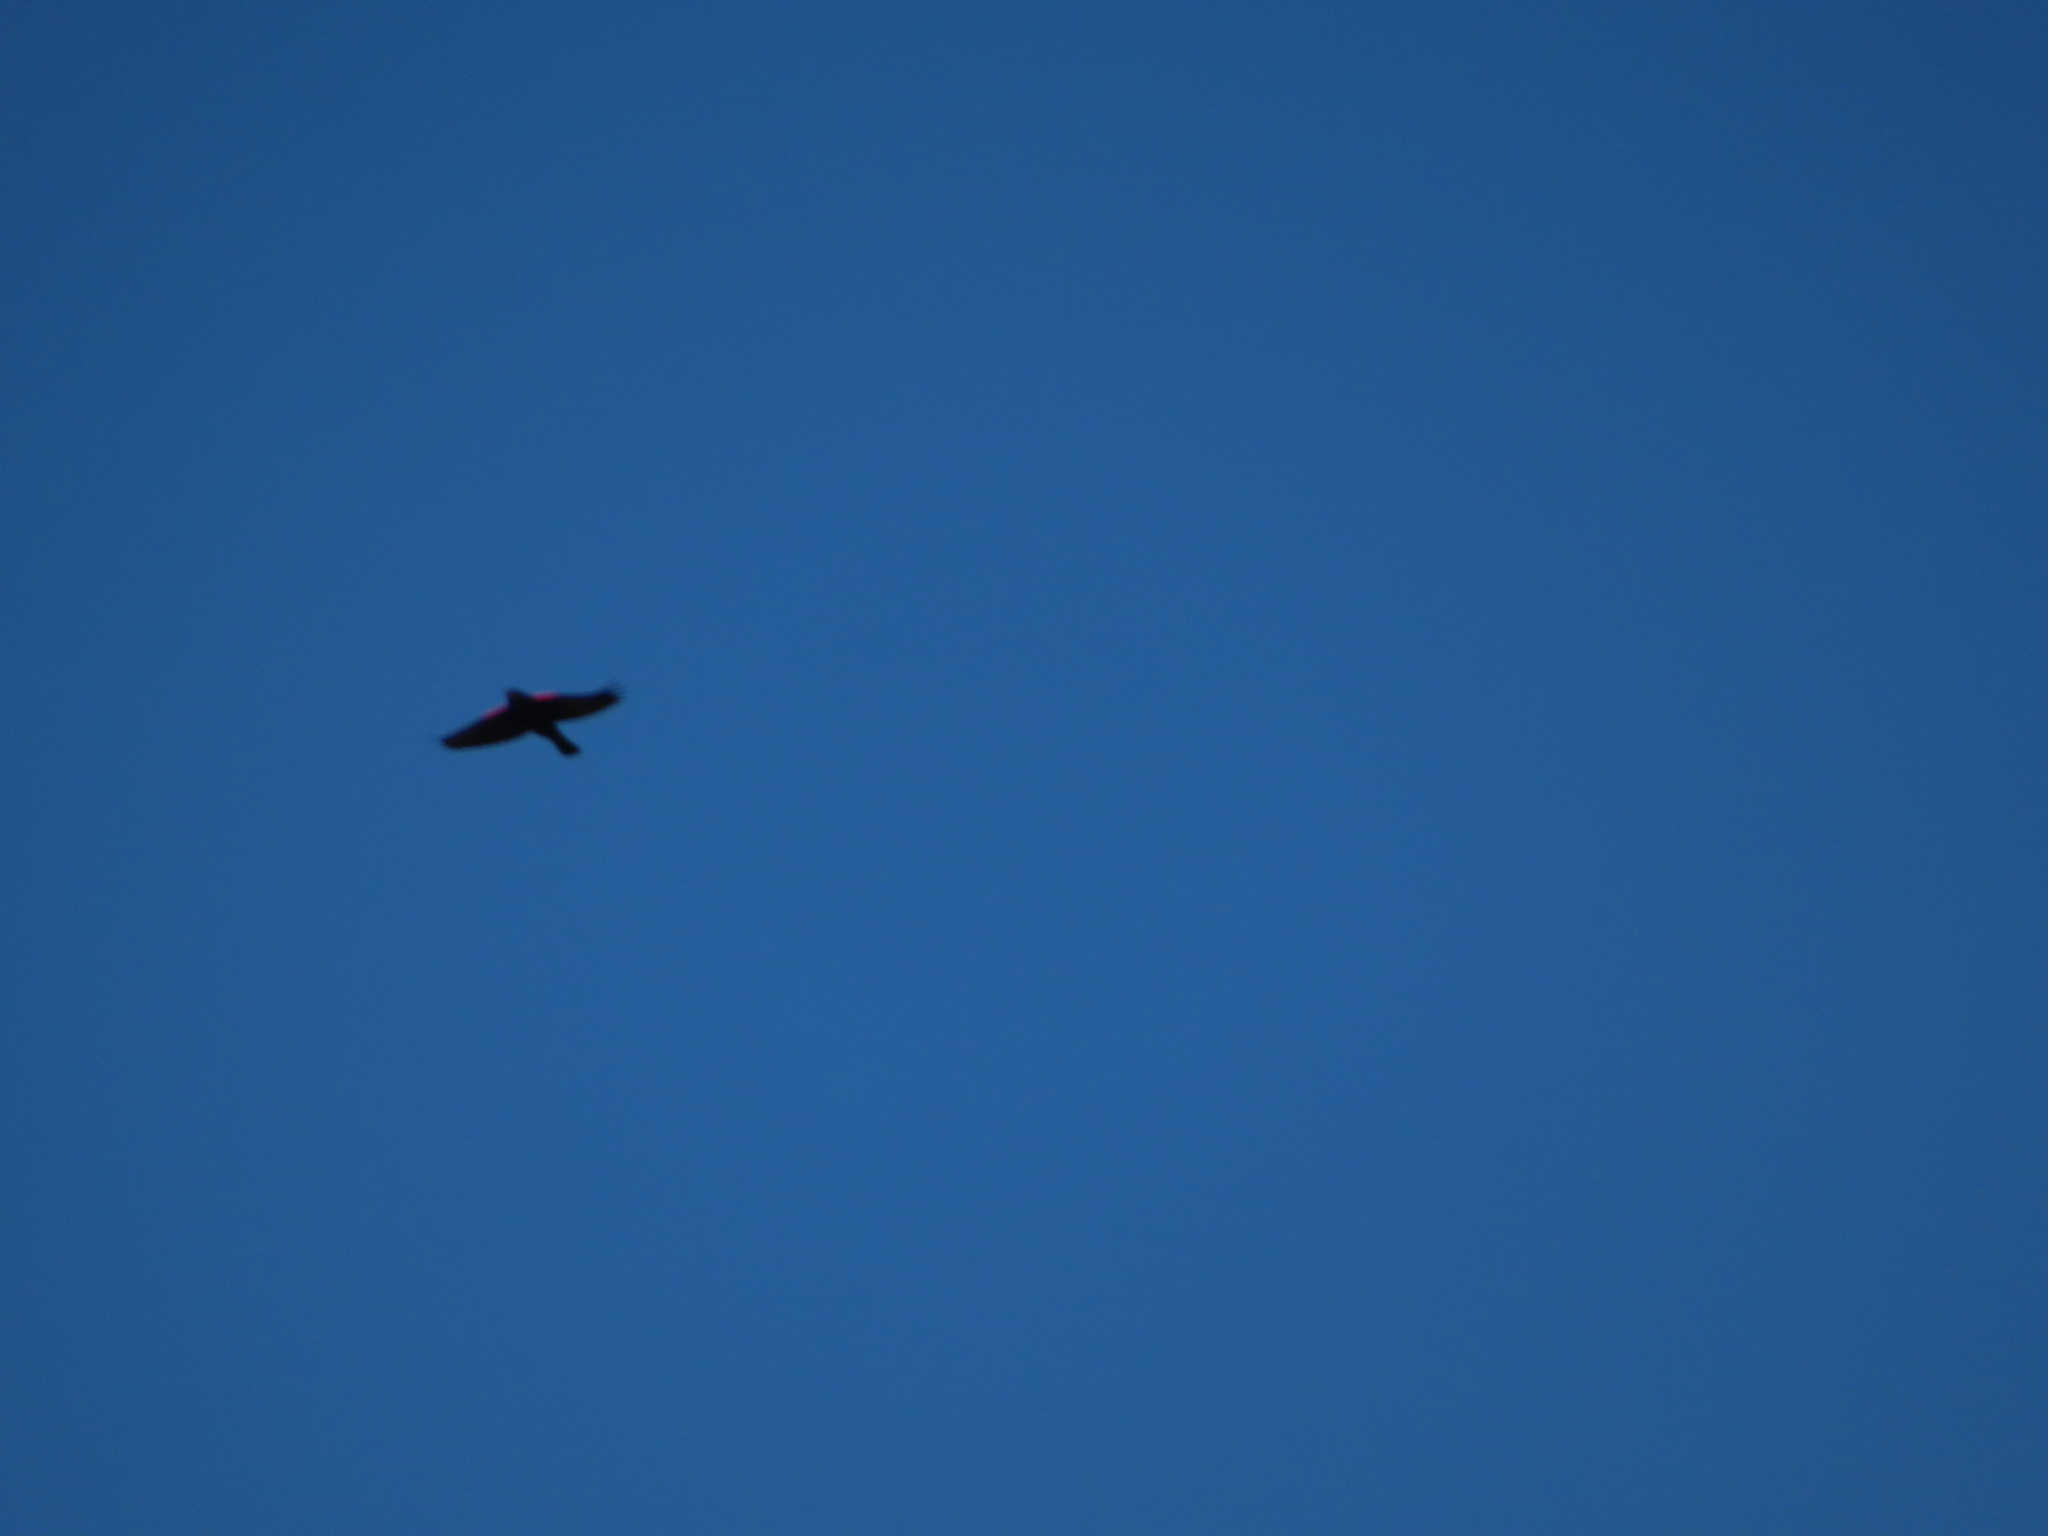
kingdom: Animalia
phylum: Chordata
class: Aves
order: Passeriformes
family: Icteridae
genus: Agelaius
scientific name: Agelaius phoeniceus
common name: Red-winged blackbird
